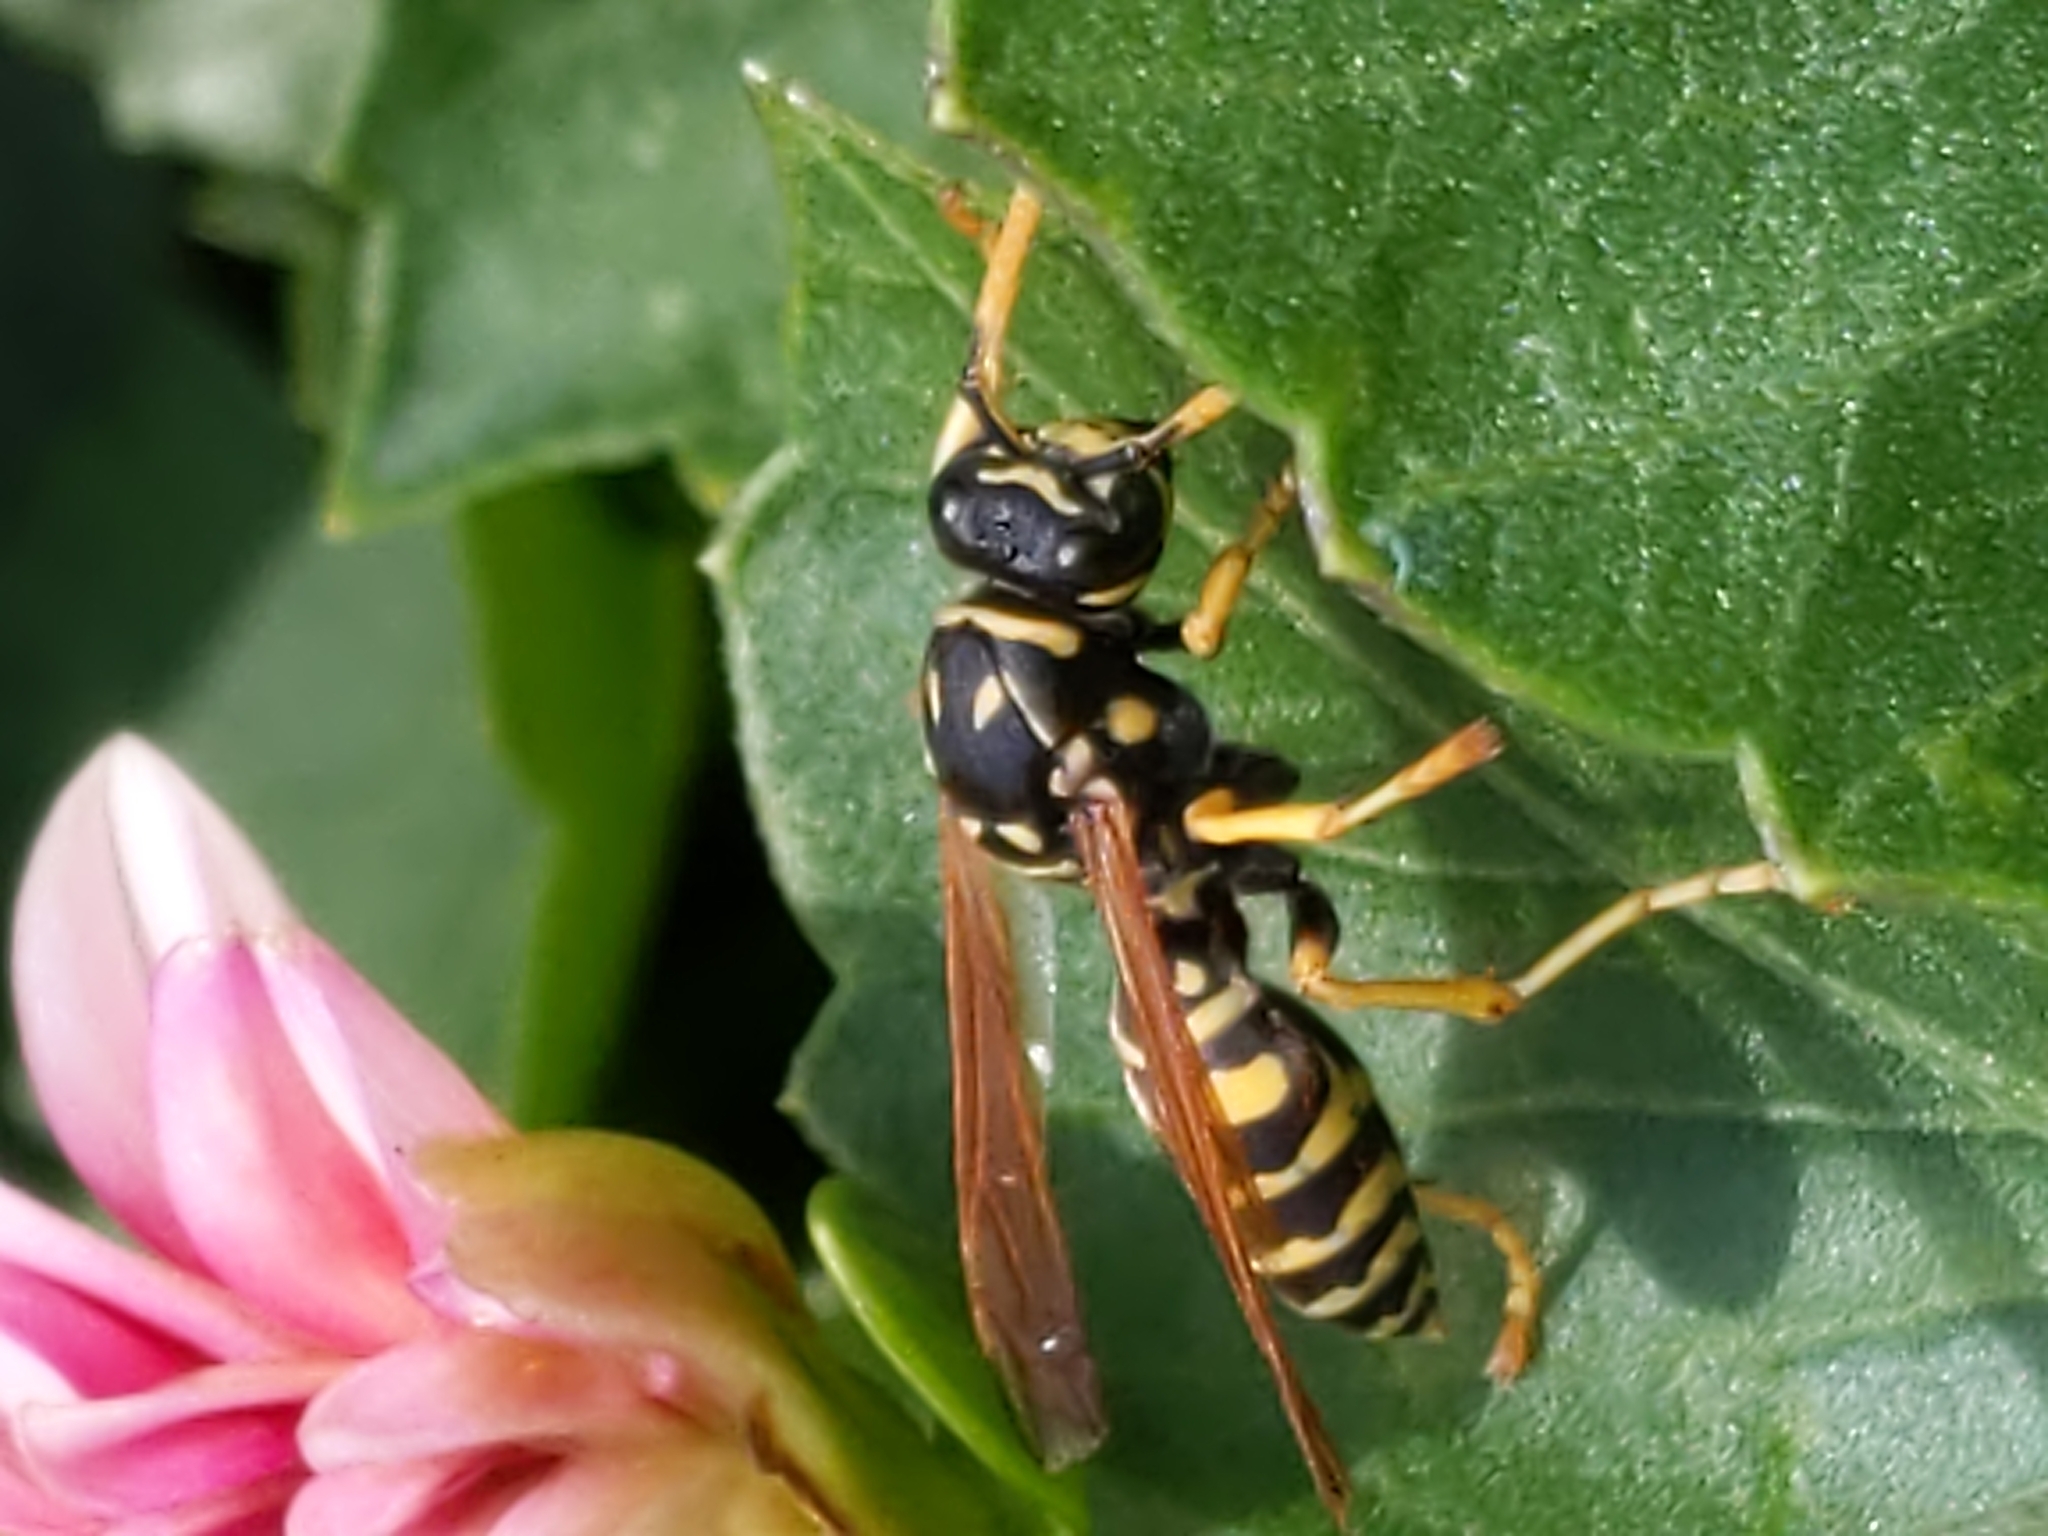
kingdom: Animalia
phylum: Arthropoda
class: Insecta
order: Hymenoptera
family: Eumenidae
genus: Polistes
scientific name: Polistes dominula
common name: Paper wasp
